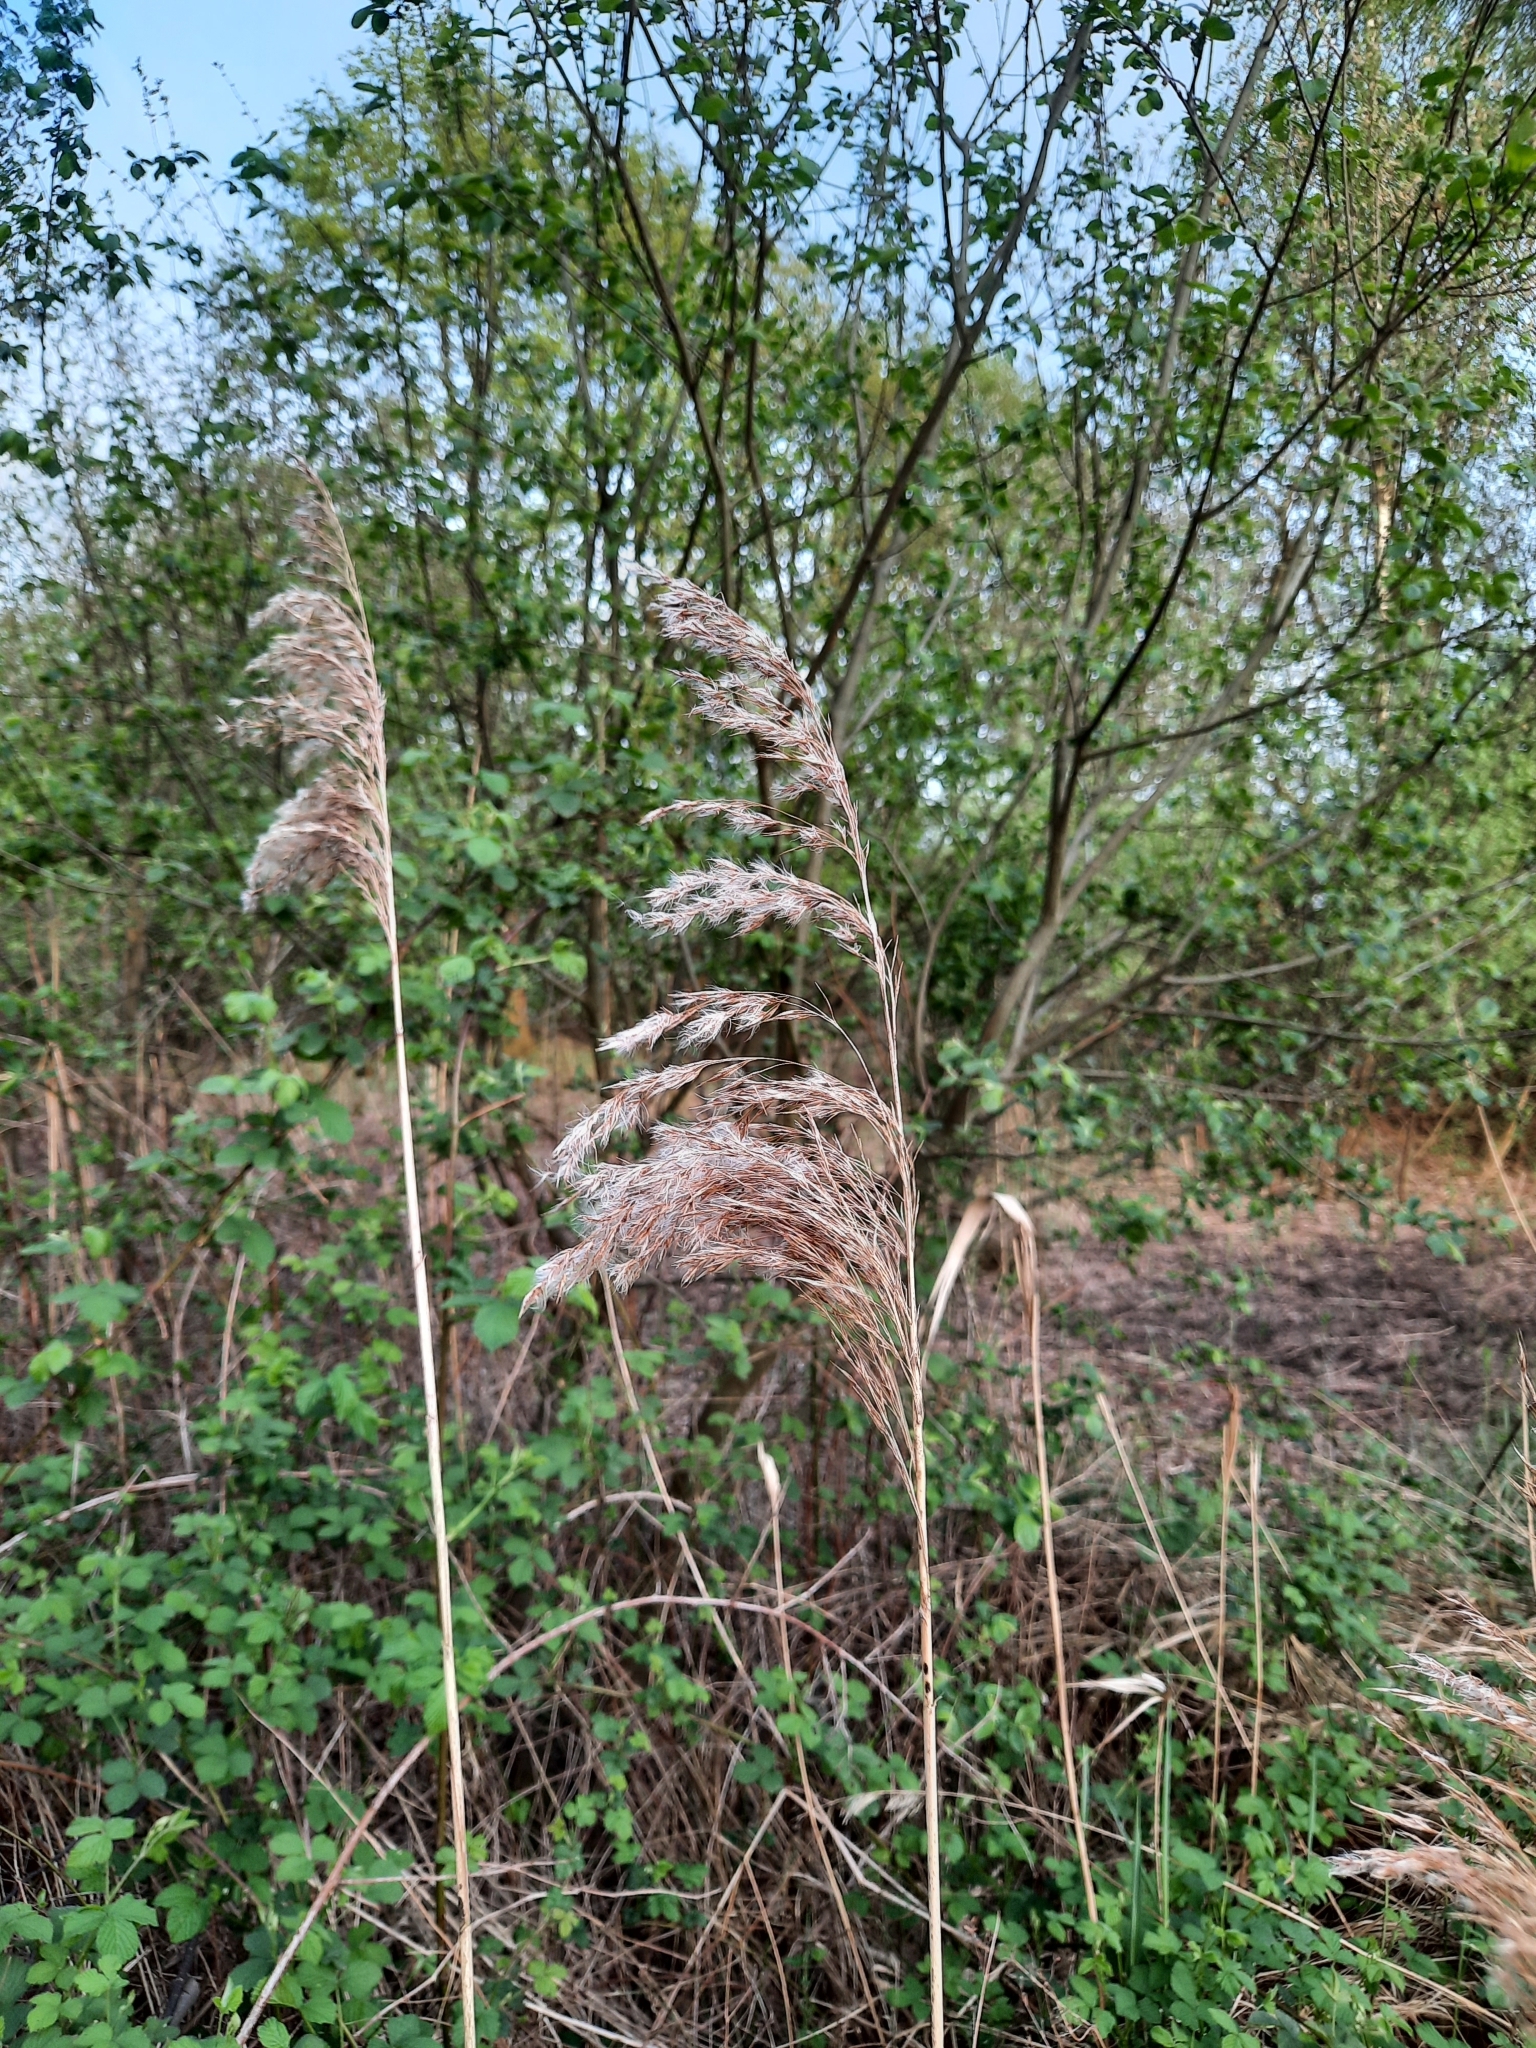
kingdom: Plantae
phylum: Tracheophyta
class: Liliopsida
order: Poales
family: Poaceae
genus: Phragmites
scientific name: Phragmites australis
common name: Common reed
